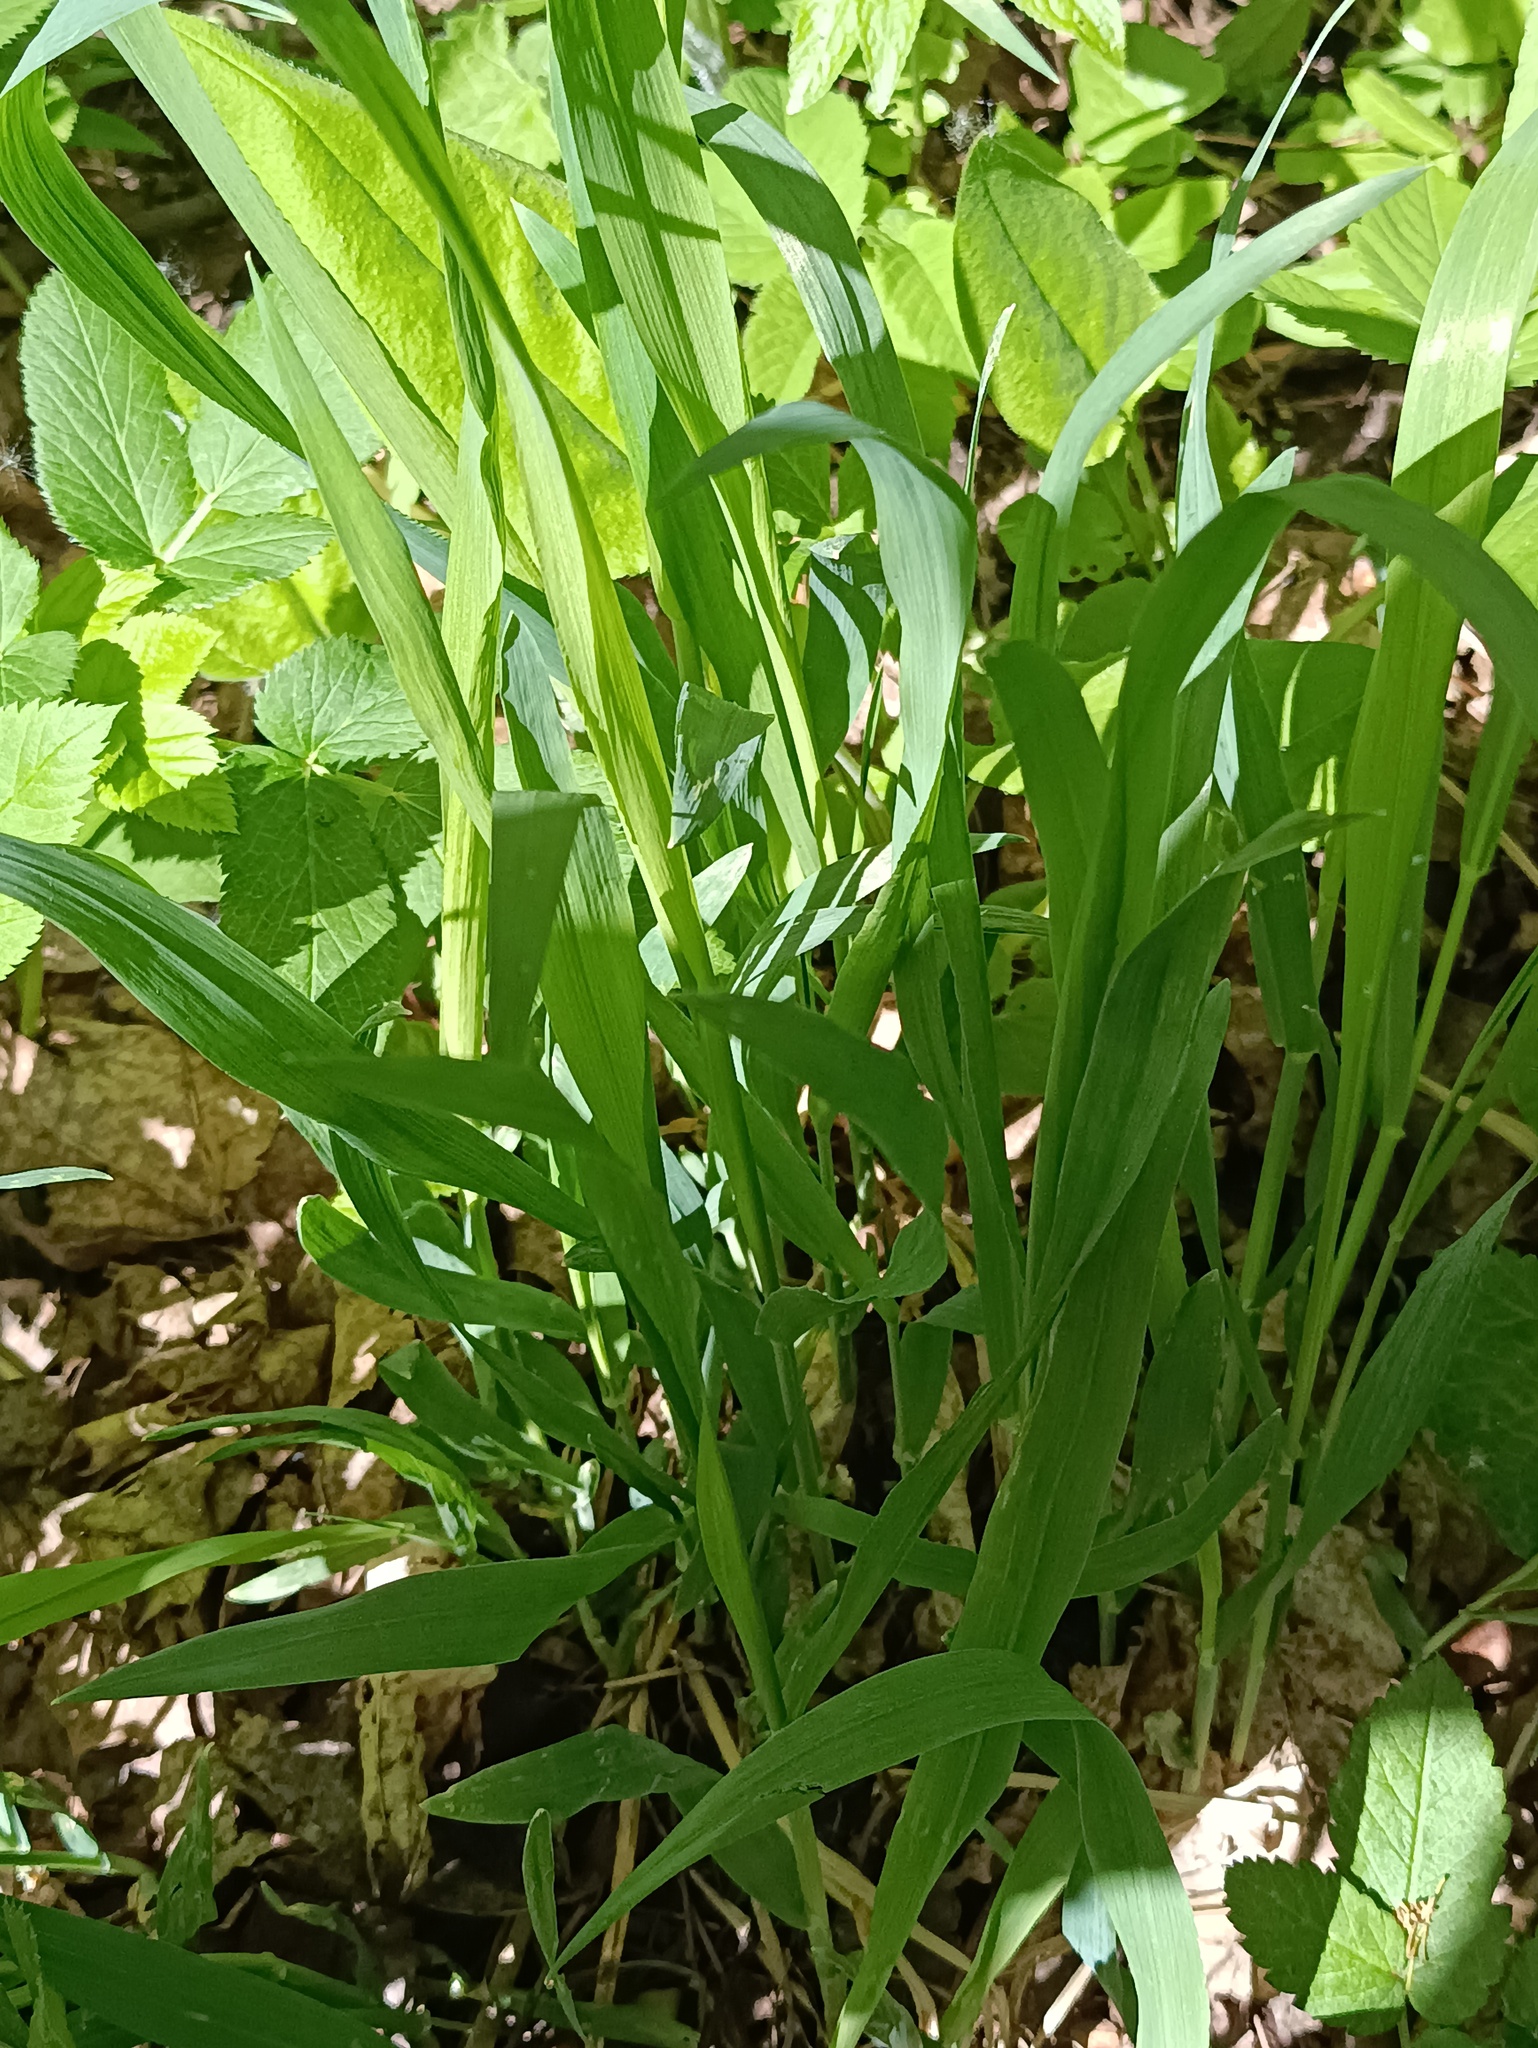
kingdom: Plantae
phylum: Tracheophyta
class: Liliopsida
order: Poales
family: Poaceae
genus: Milium
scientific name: Milium effusum
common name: Wood millet
